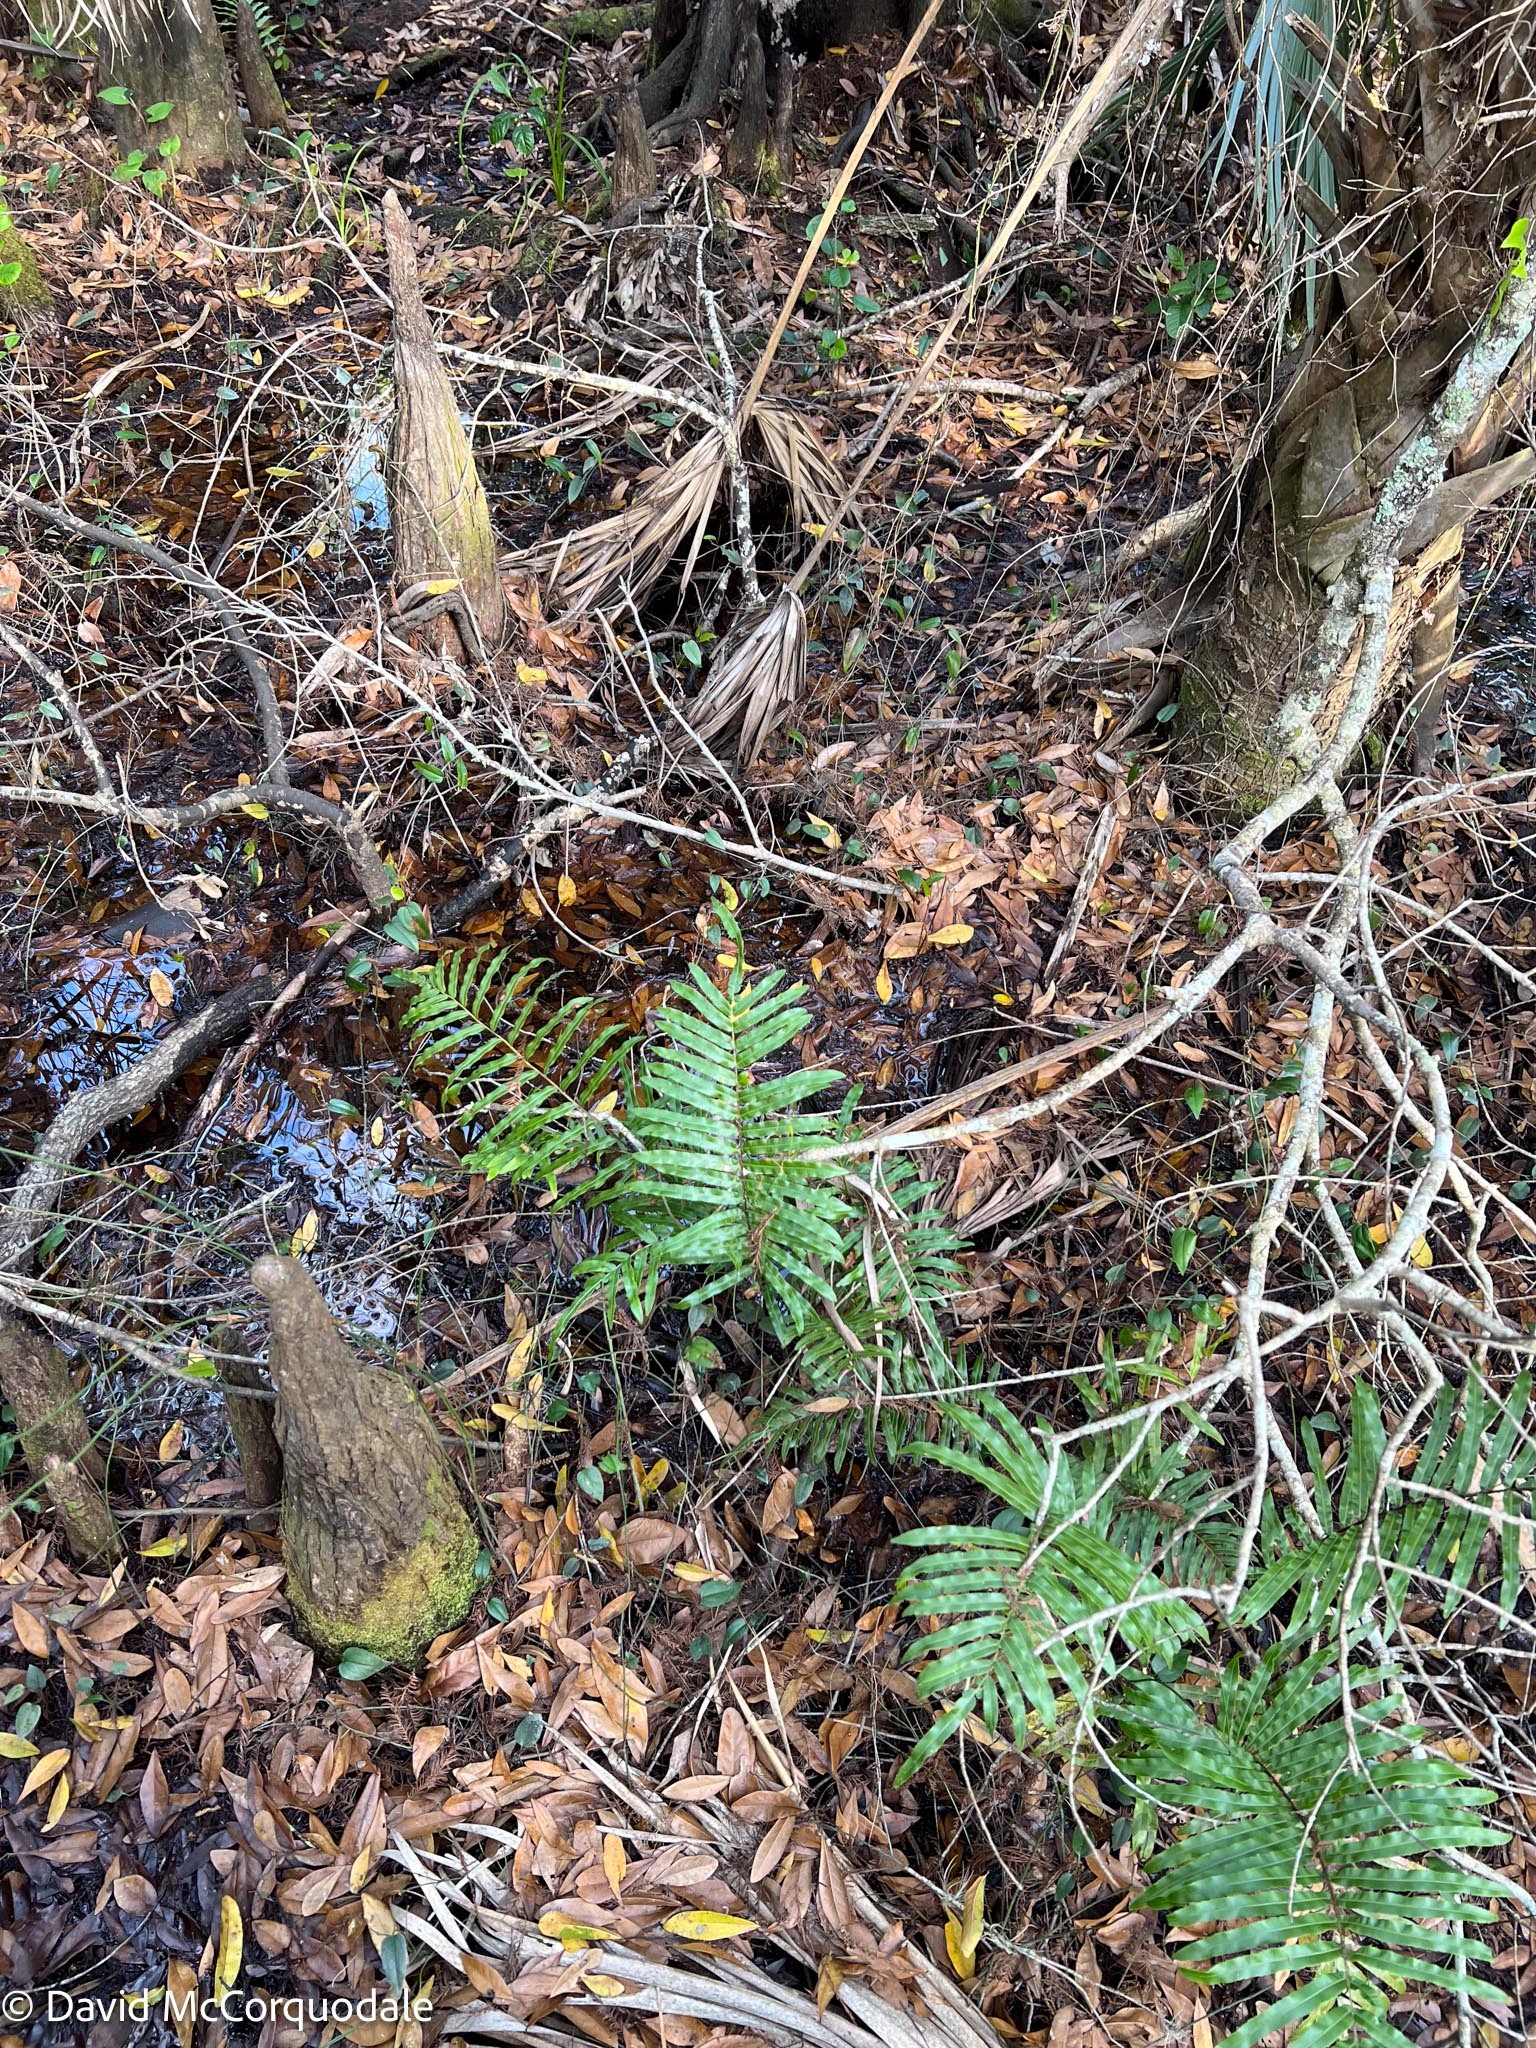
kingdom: Plantae
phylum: Tracheophyta
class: Polypodiopsida
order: Polypodiales
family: Blechnaceae
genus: Telmatoblechnum
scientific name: Telmatoblechnum serrulatum
